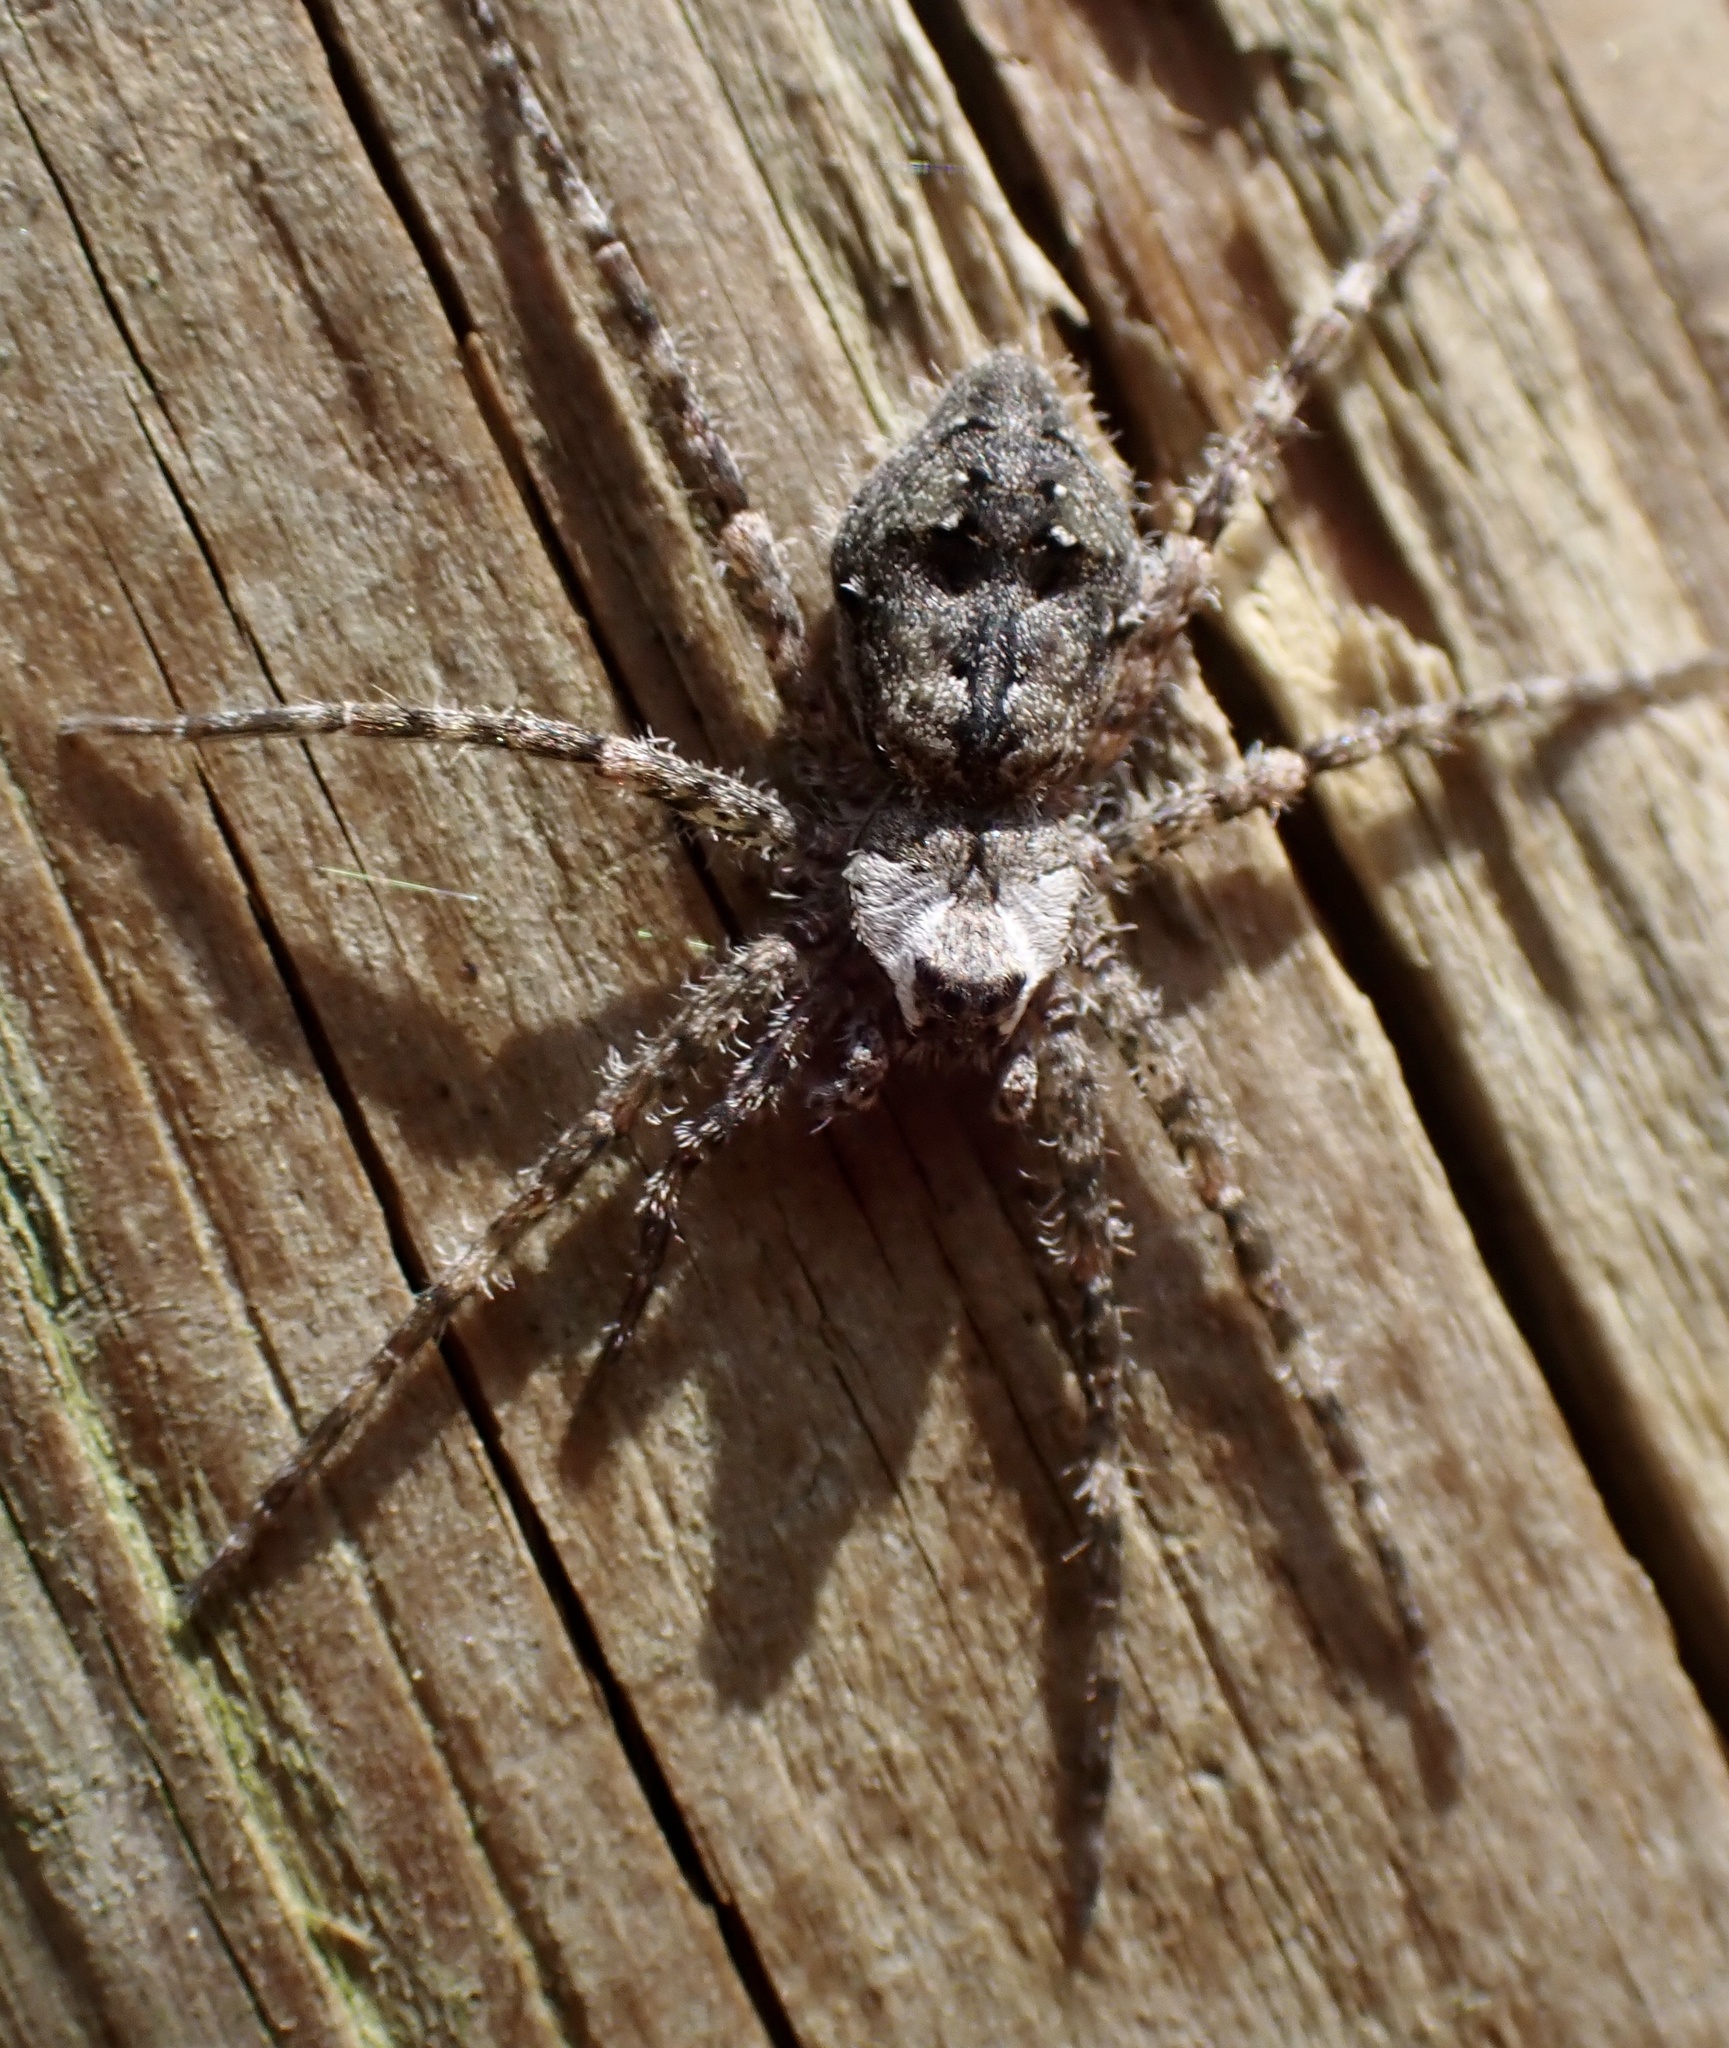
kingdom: Animalia
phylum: Arthropoda
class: Arachnida
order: Araneae
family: Pisauridae
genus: Dolomedes
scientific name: Dolomedes albineus
